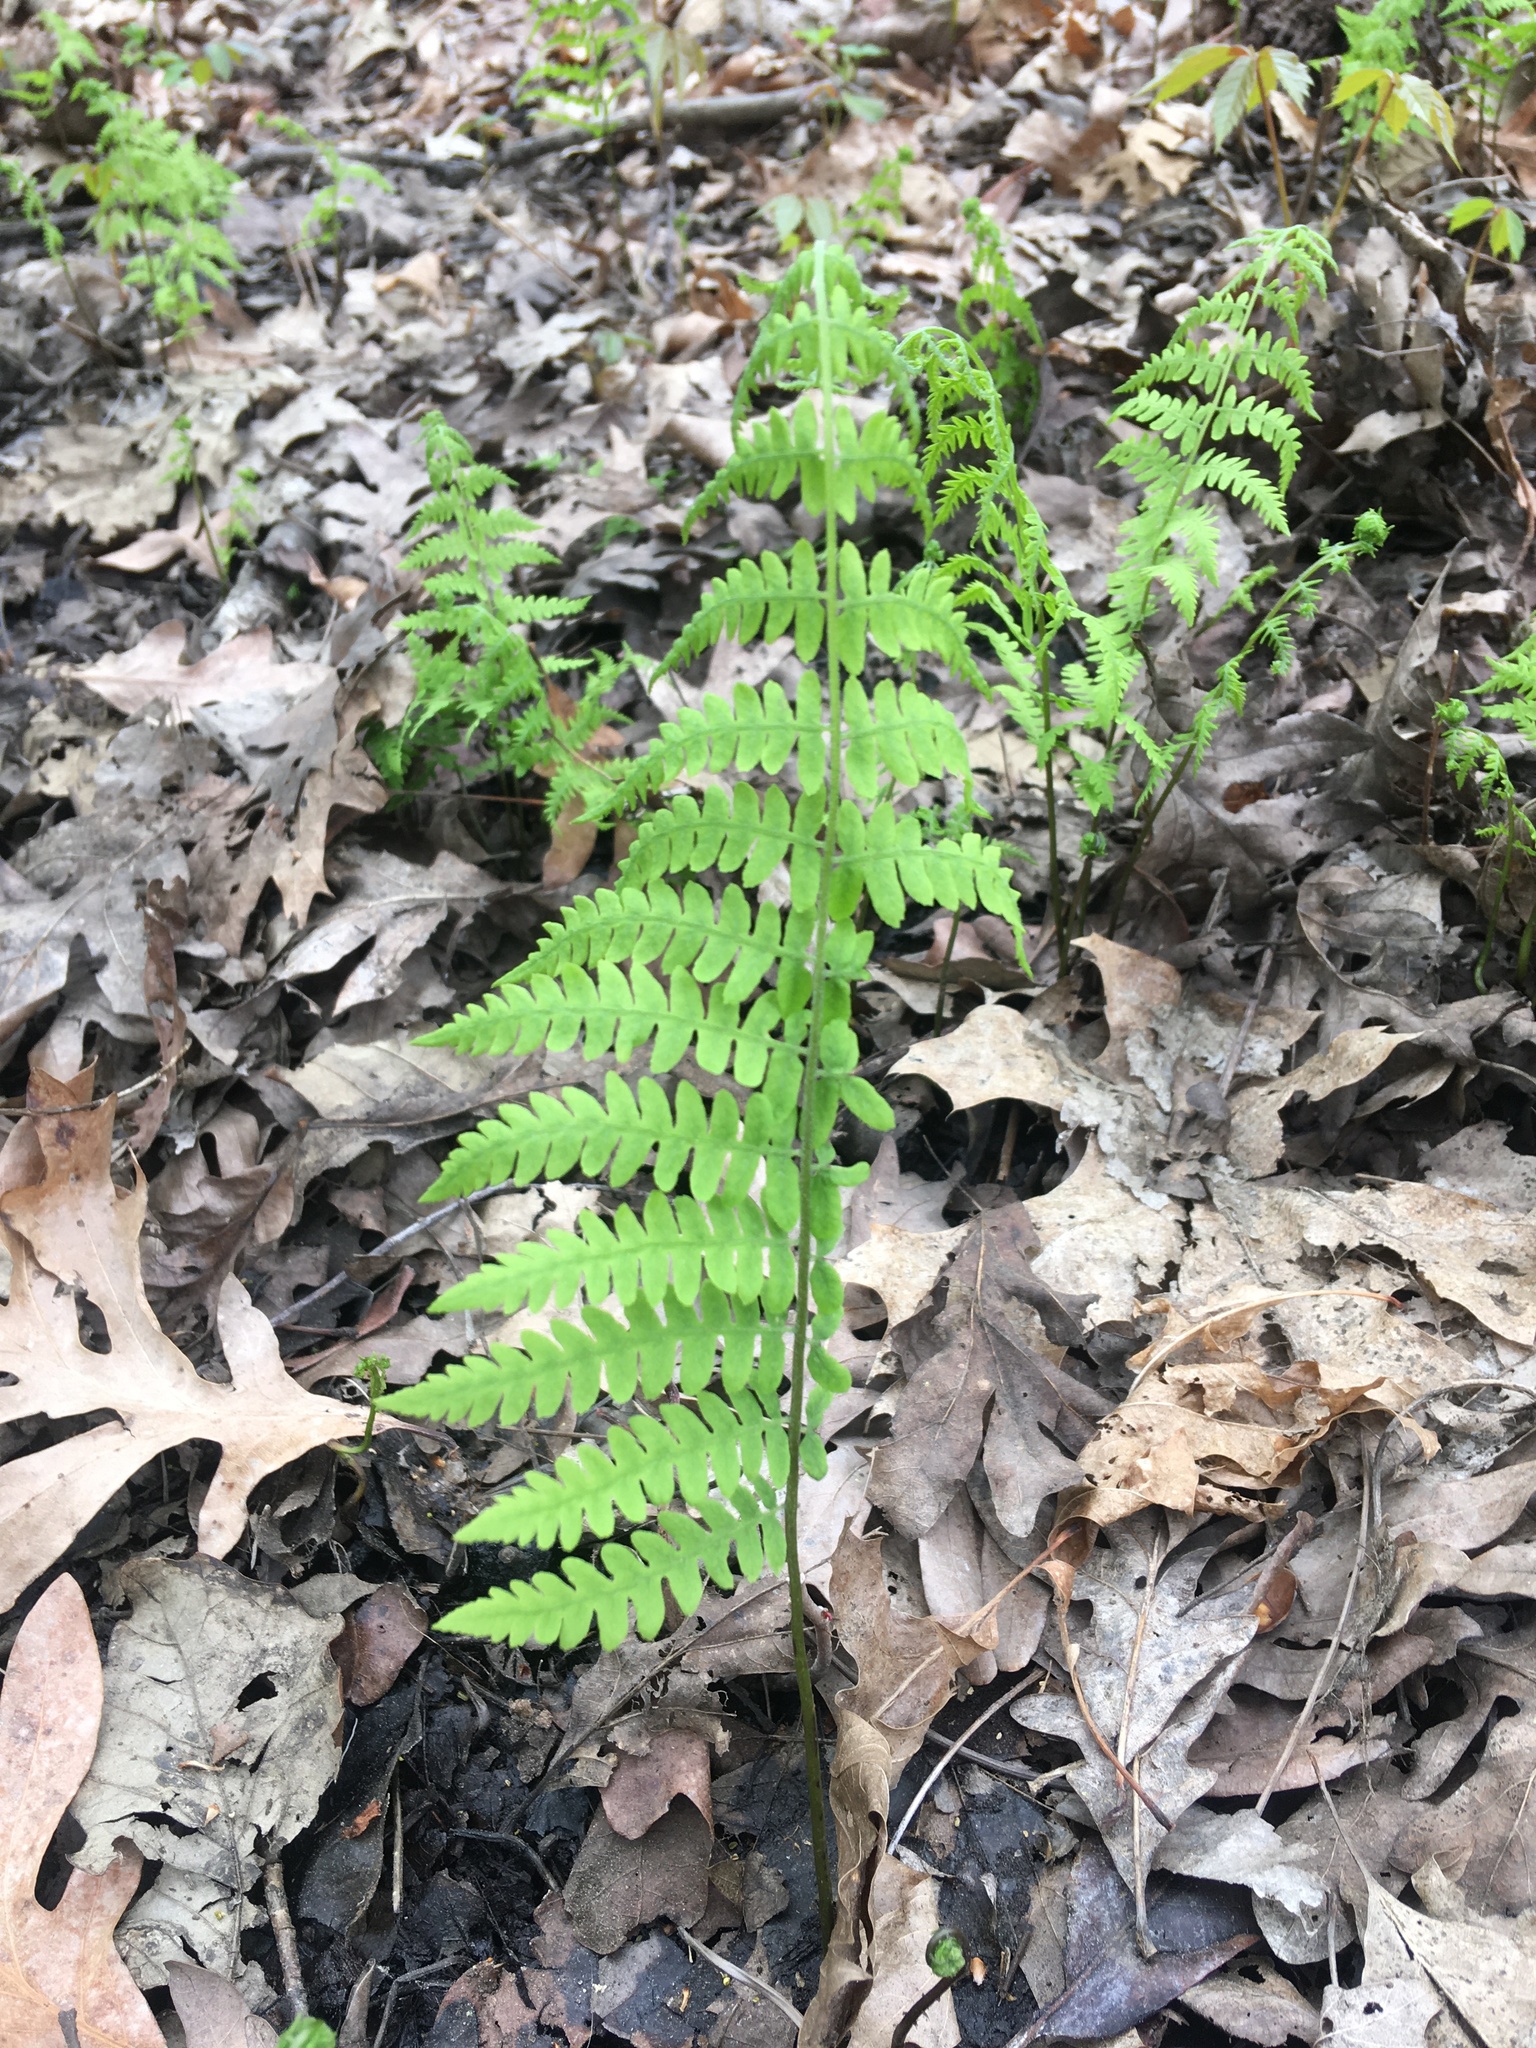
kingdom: Plantae
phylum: Tracheophyta
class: Polypodiopsida
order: Polypodiales
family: Thelypteridaceae
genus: Thelypteris
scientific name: Thelypteris palustris
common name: Marsh fern
